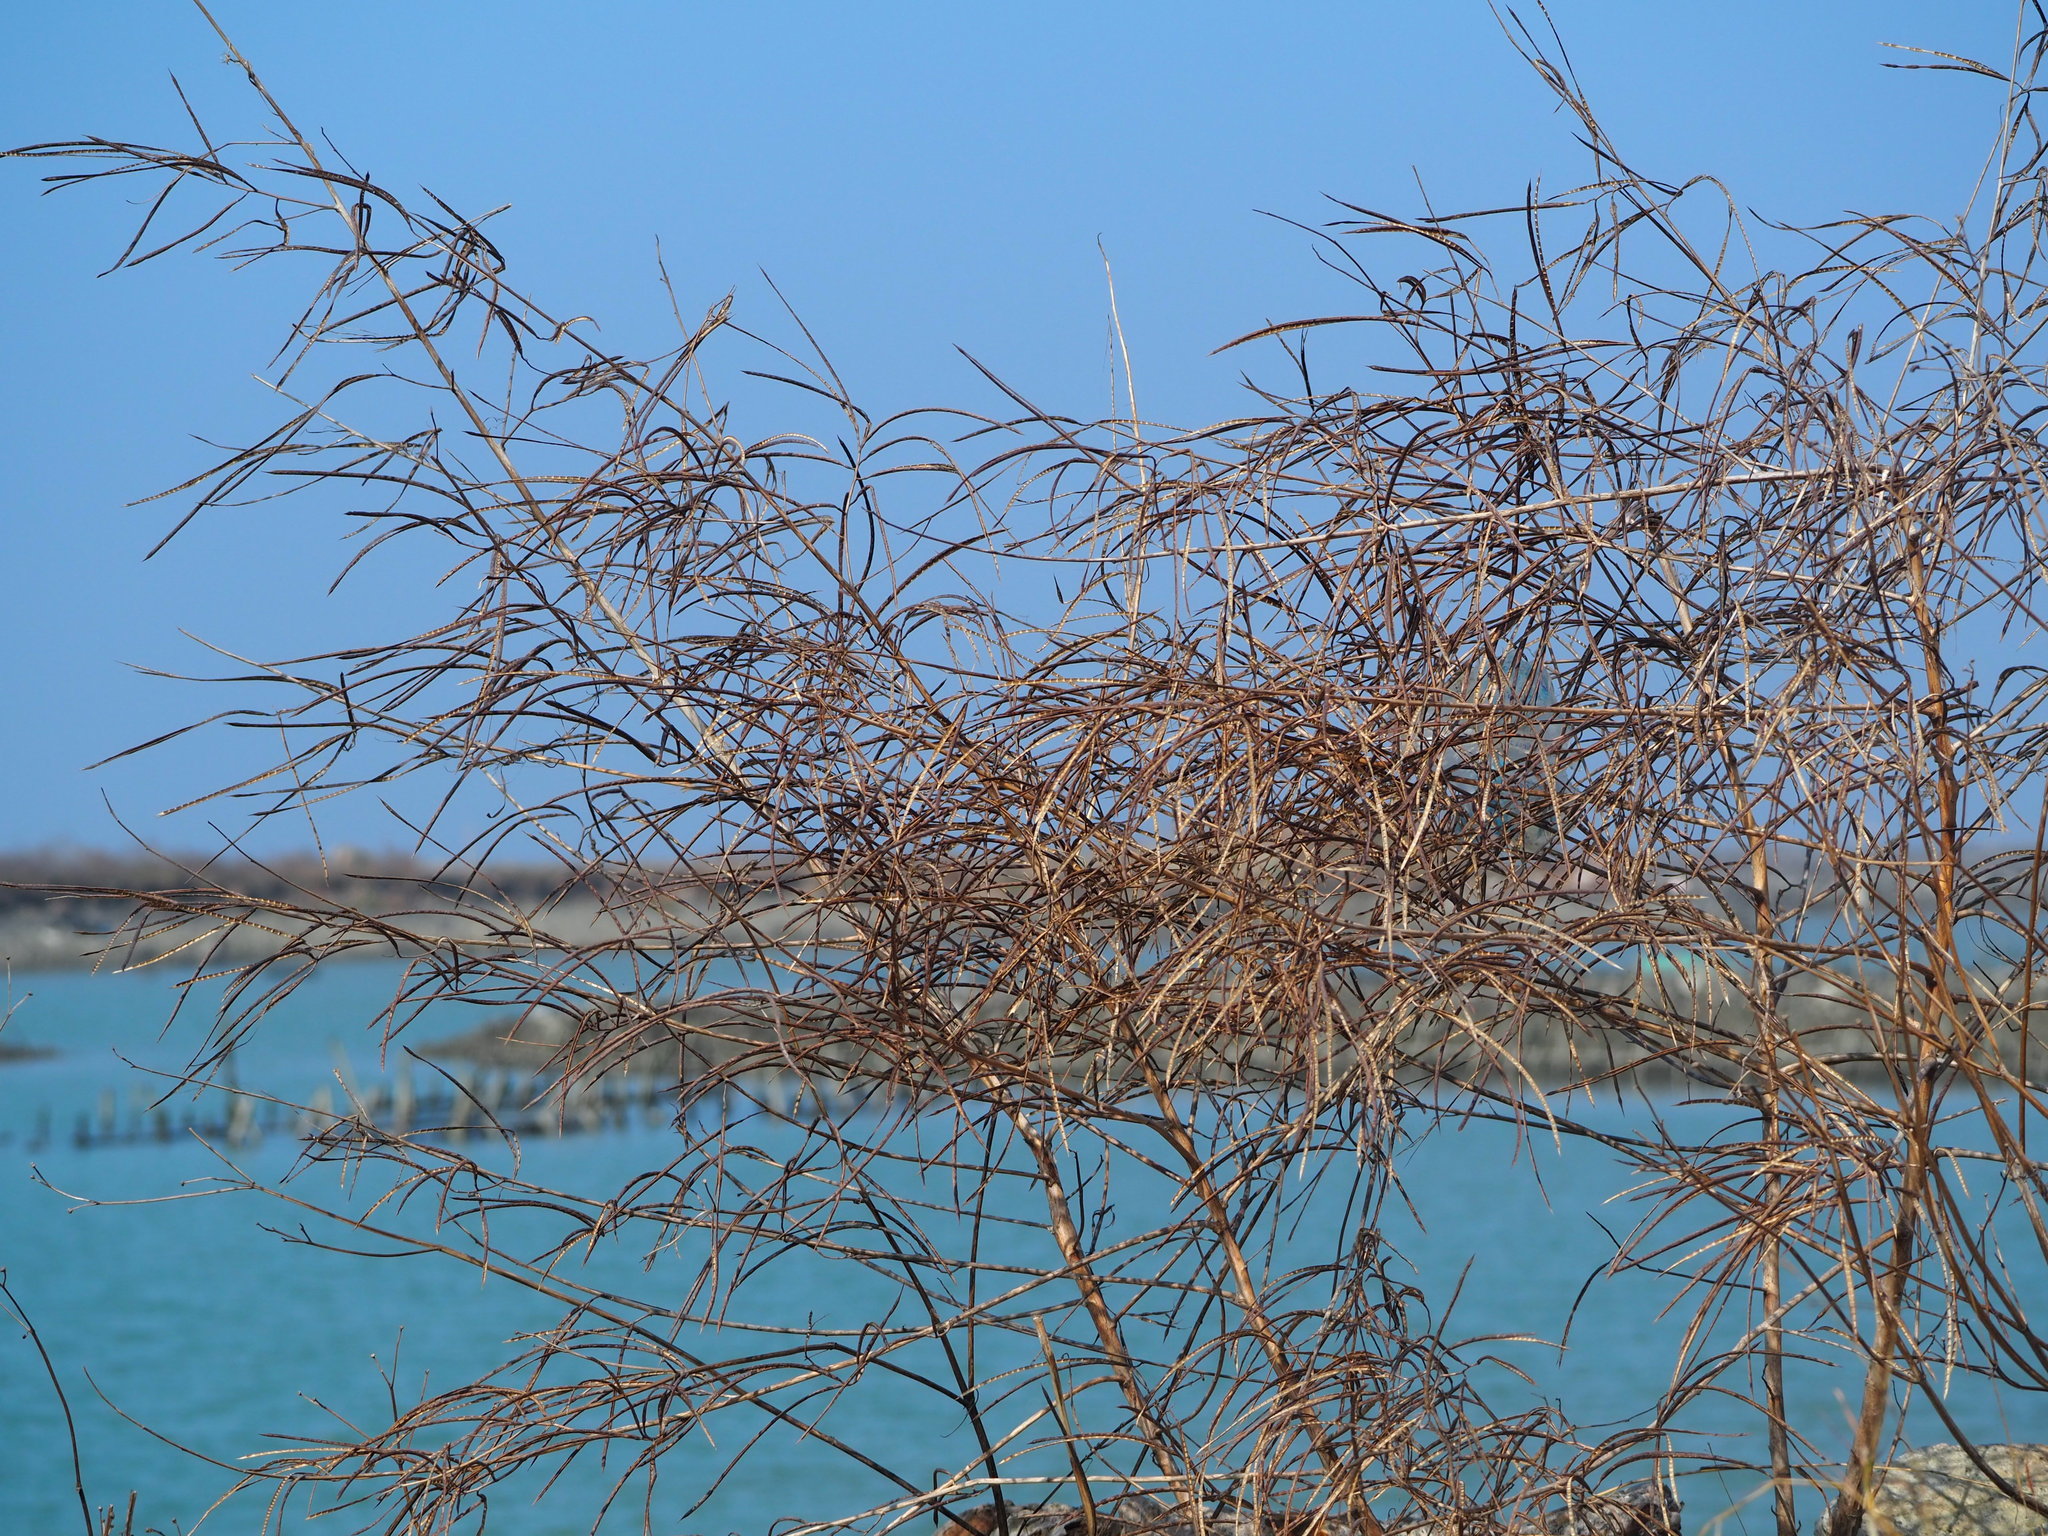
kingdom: Plantae
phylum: Tracheophyta
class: Magnoliopsida
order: Fabales
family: Fabaceae
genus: Sesbania
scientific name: Sesbania cannabina
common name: Canicha
